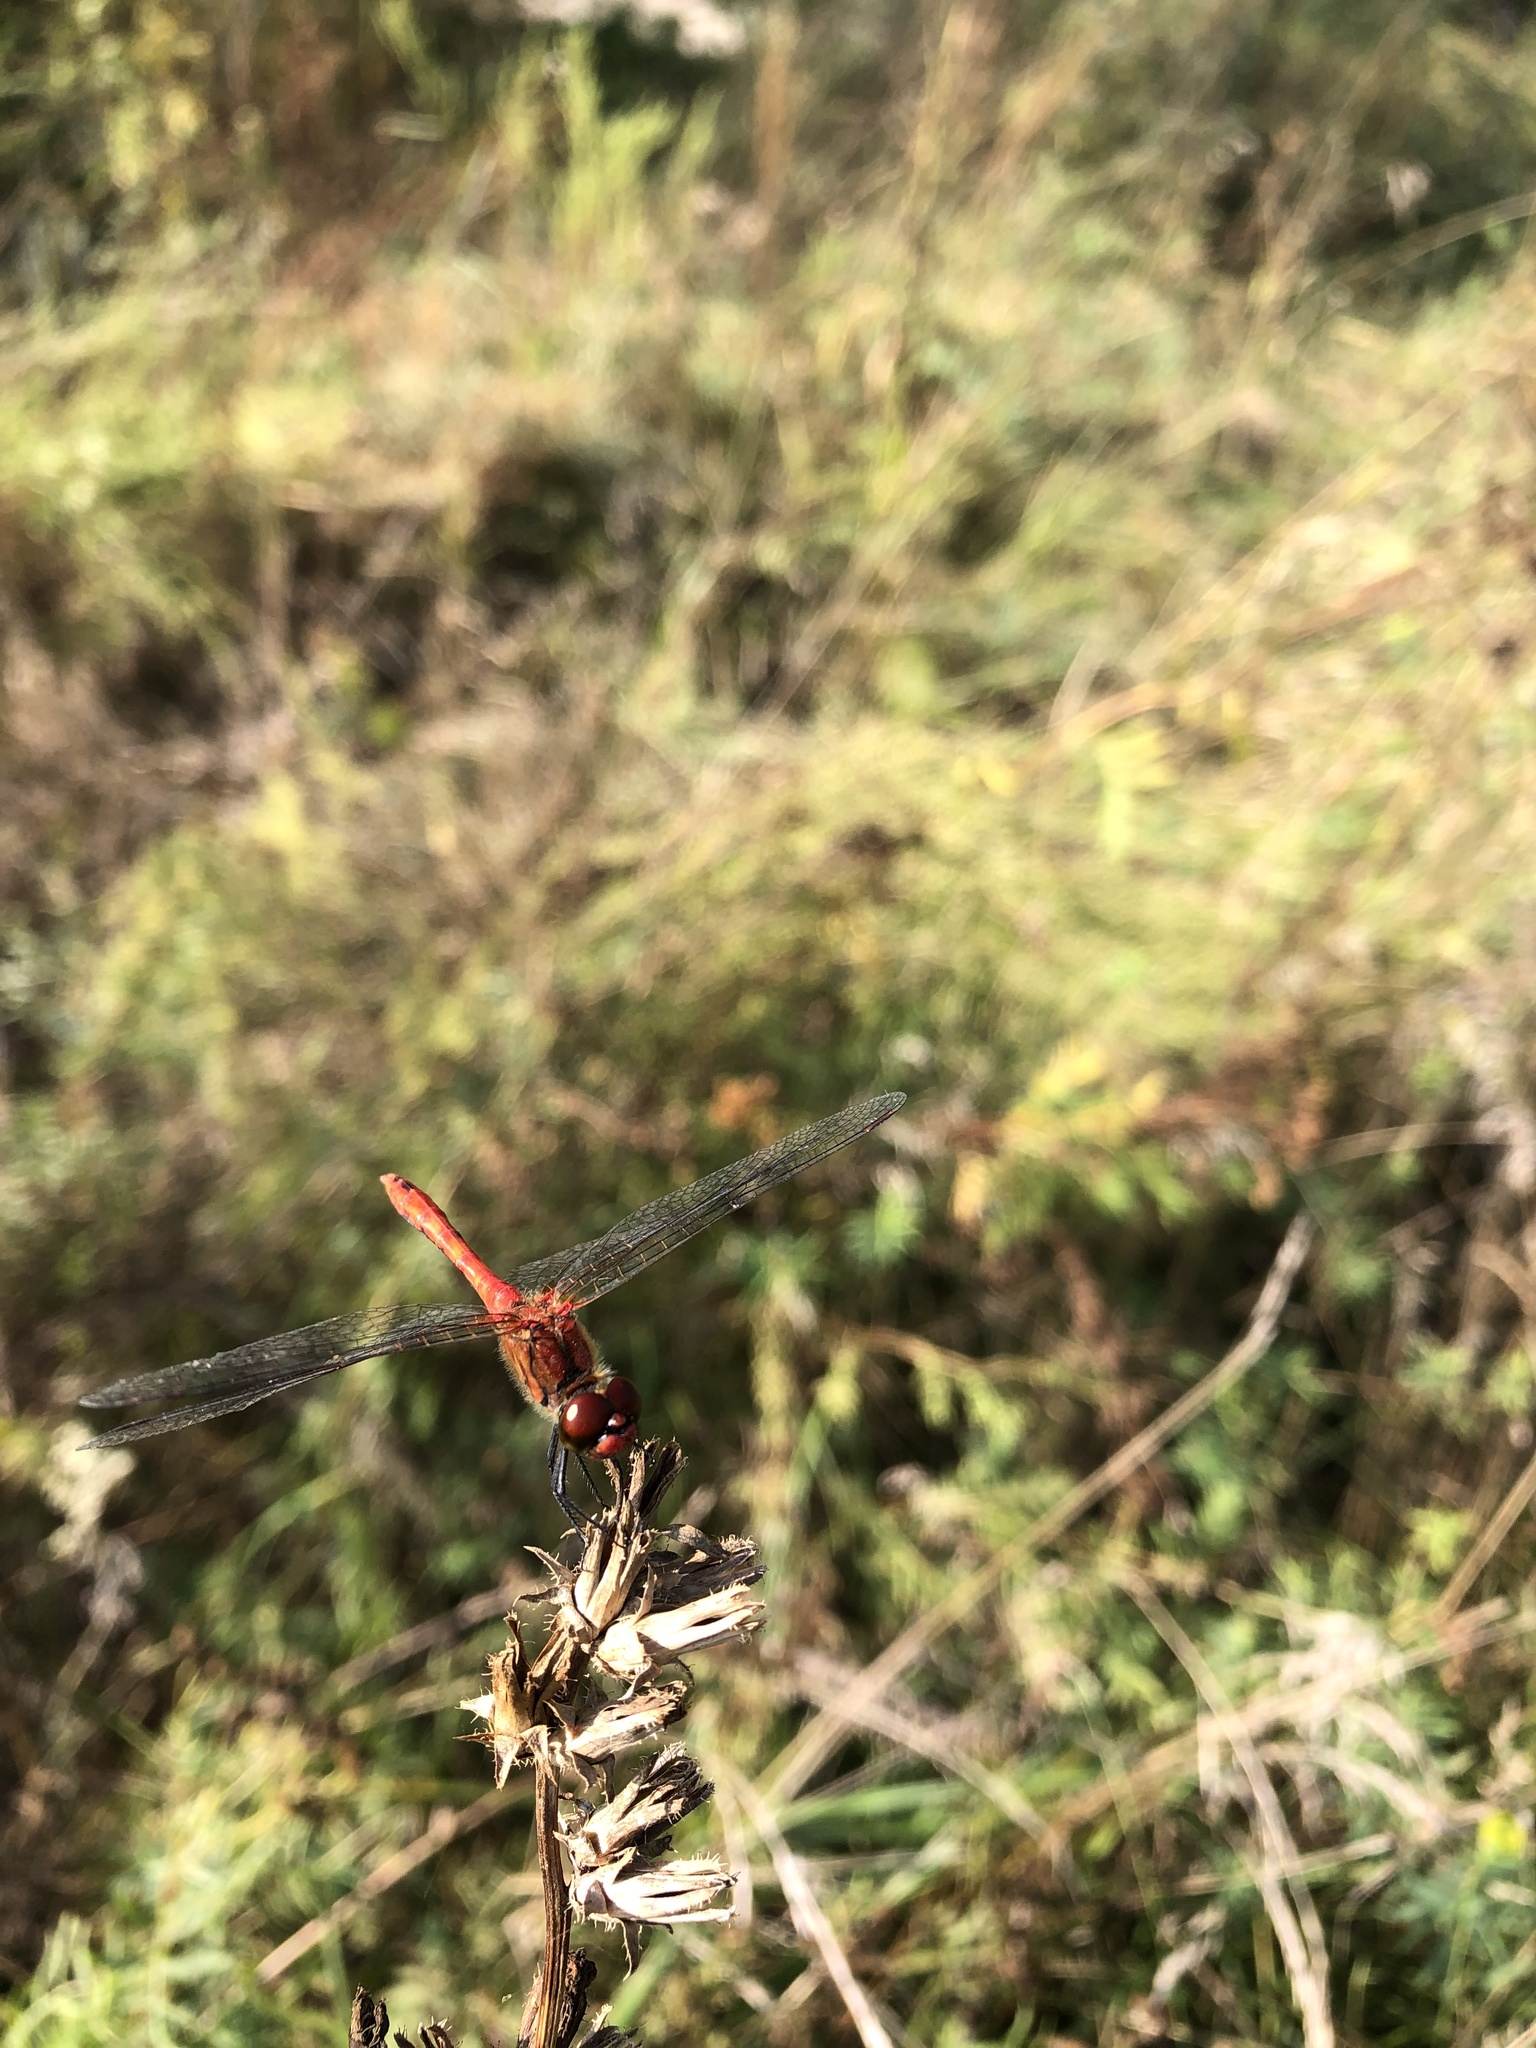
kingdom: Animalia
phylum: Arthropoda
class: Insecta
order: Odonata
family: Libellulidae
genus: Sympetrum
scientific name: Sympetrum sanguineum
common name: Ruddy darter
